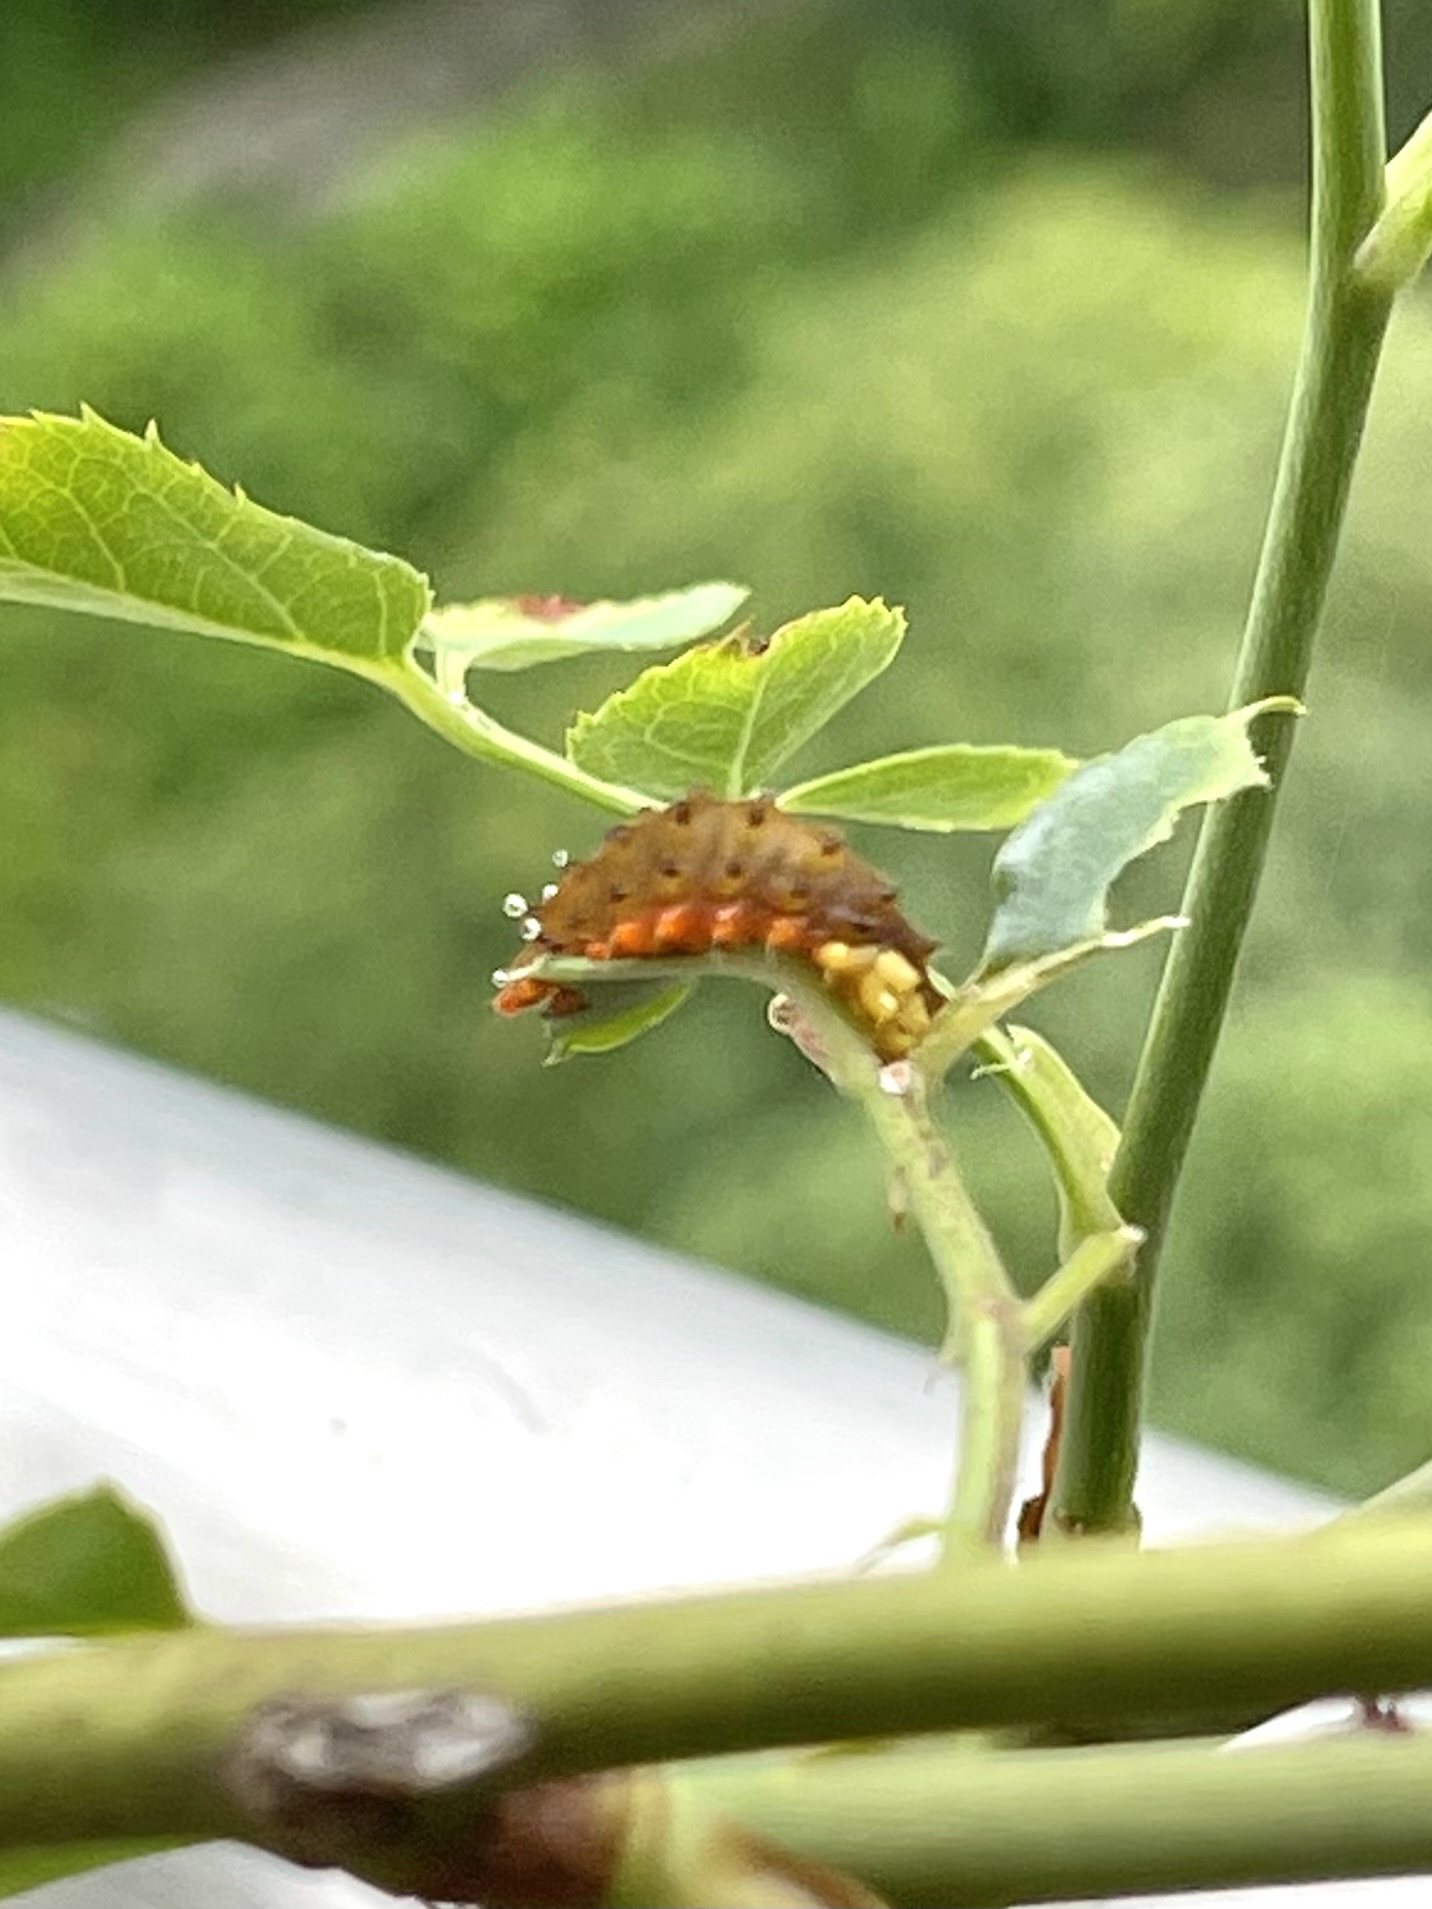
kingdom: Animalia
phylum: Arthropoda
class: Insecta
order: Lepidoptera
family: Zygaenidae
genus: Trypanophora
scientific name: Trypanophora semihyalina
